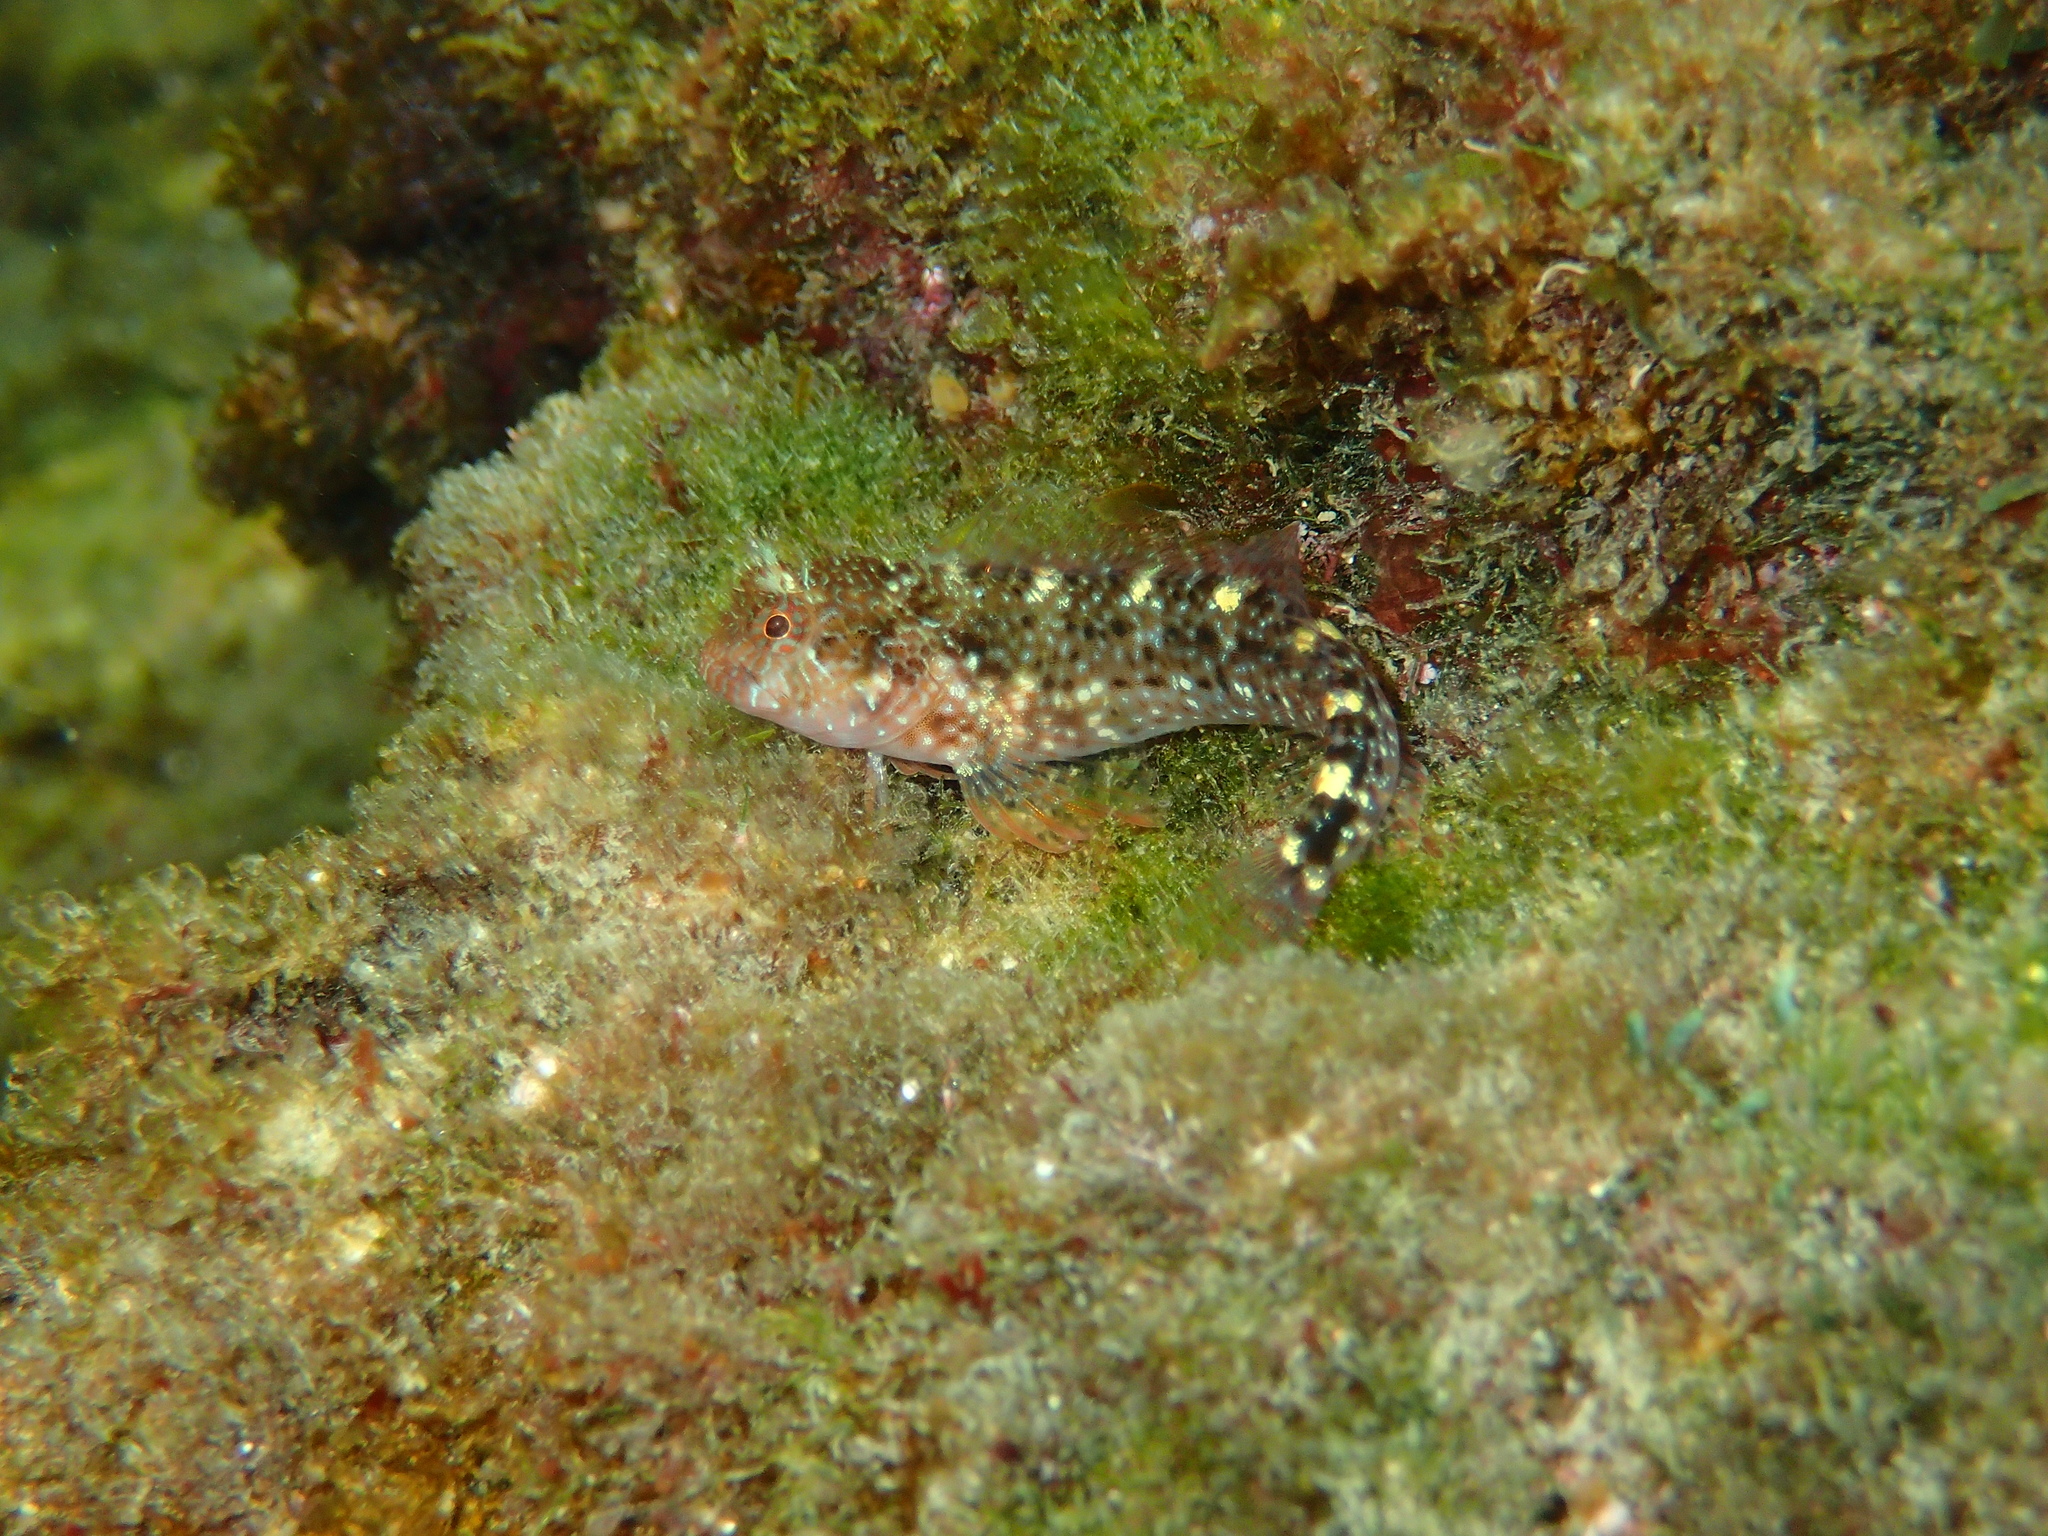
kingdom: Animalia
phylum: Chordata
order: Perciformes
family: Blenniidae
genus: Parablennius
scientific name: Parablennius zvonimiri
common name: Red blenny
